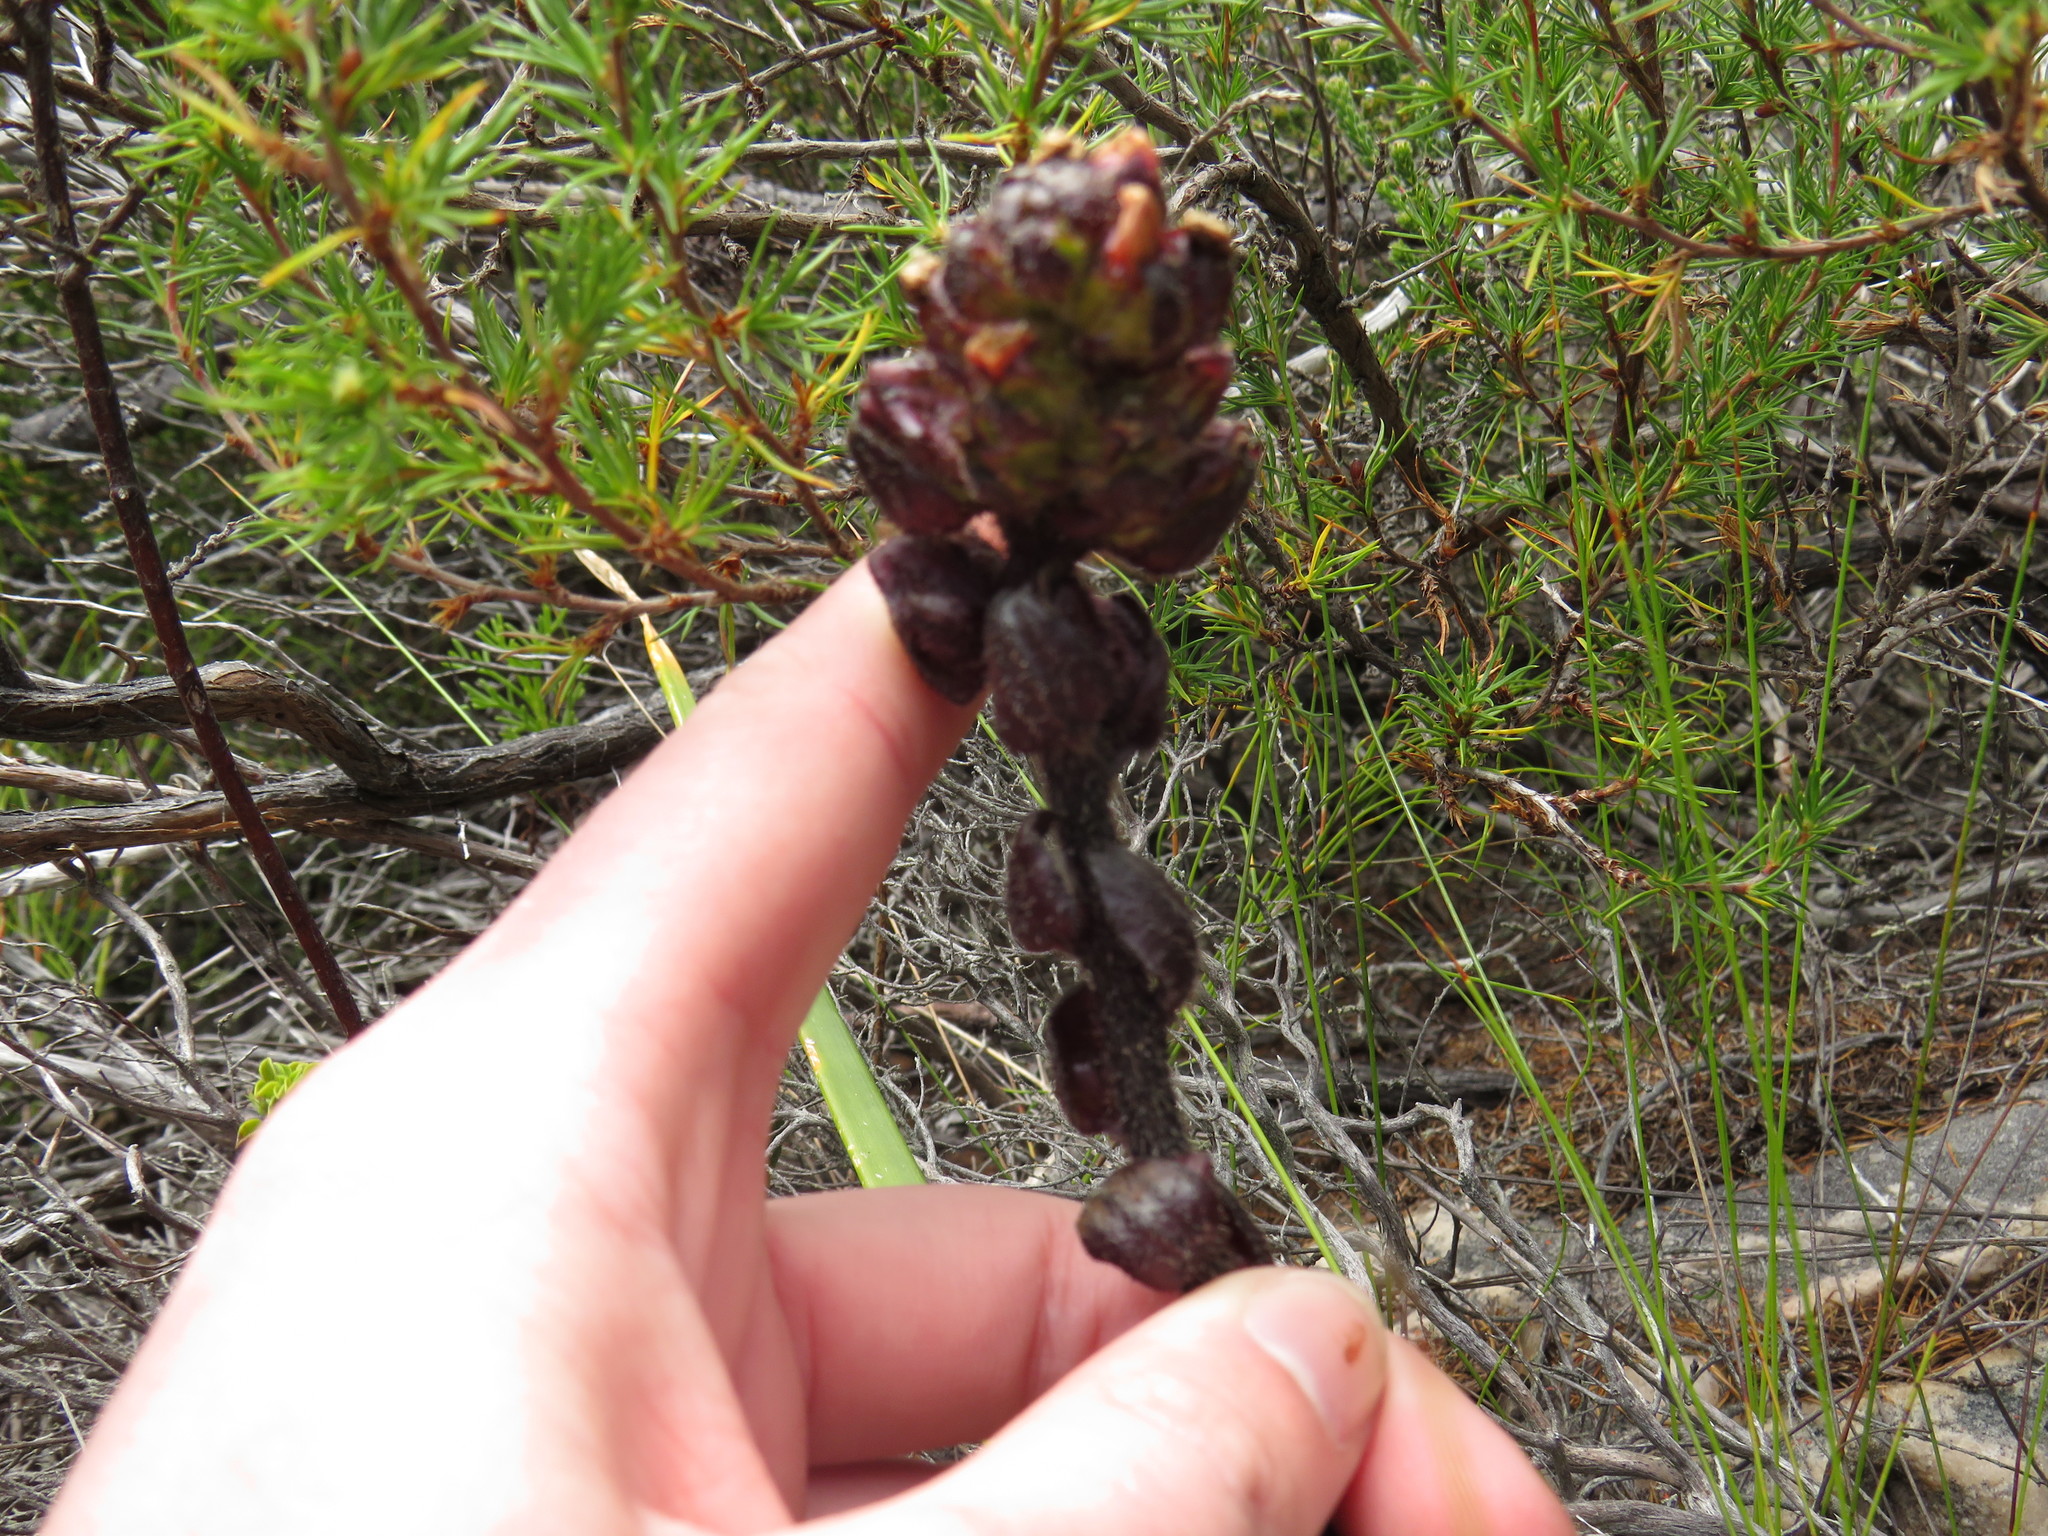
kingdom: Plantae
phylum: Tracheophyta
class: Magnoliopsida
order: Lamiales
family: Orobanchaceae
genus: Alectra
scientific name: Alectra lurida
